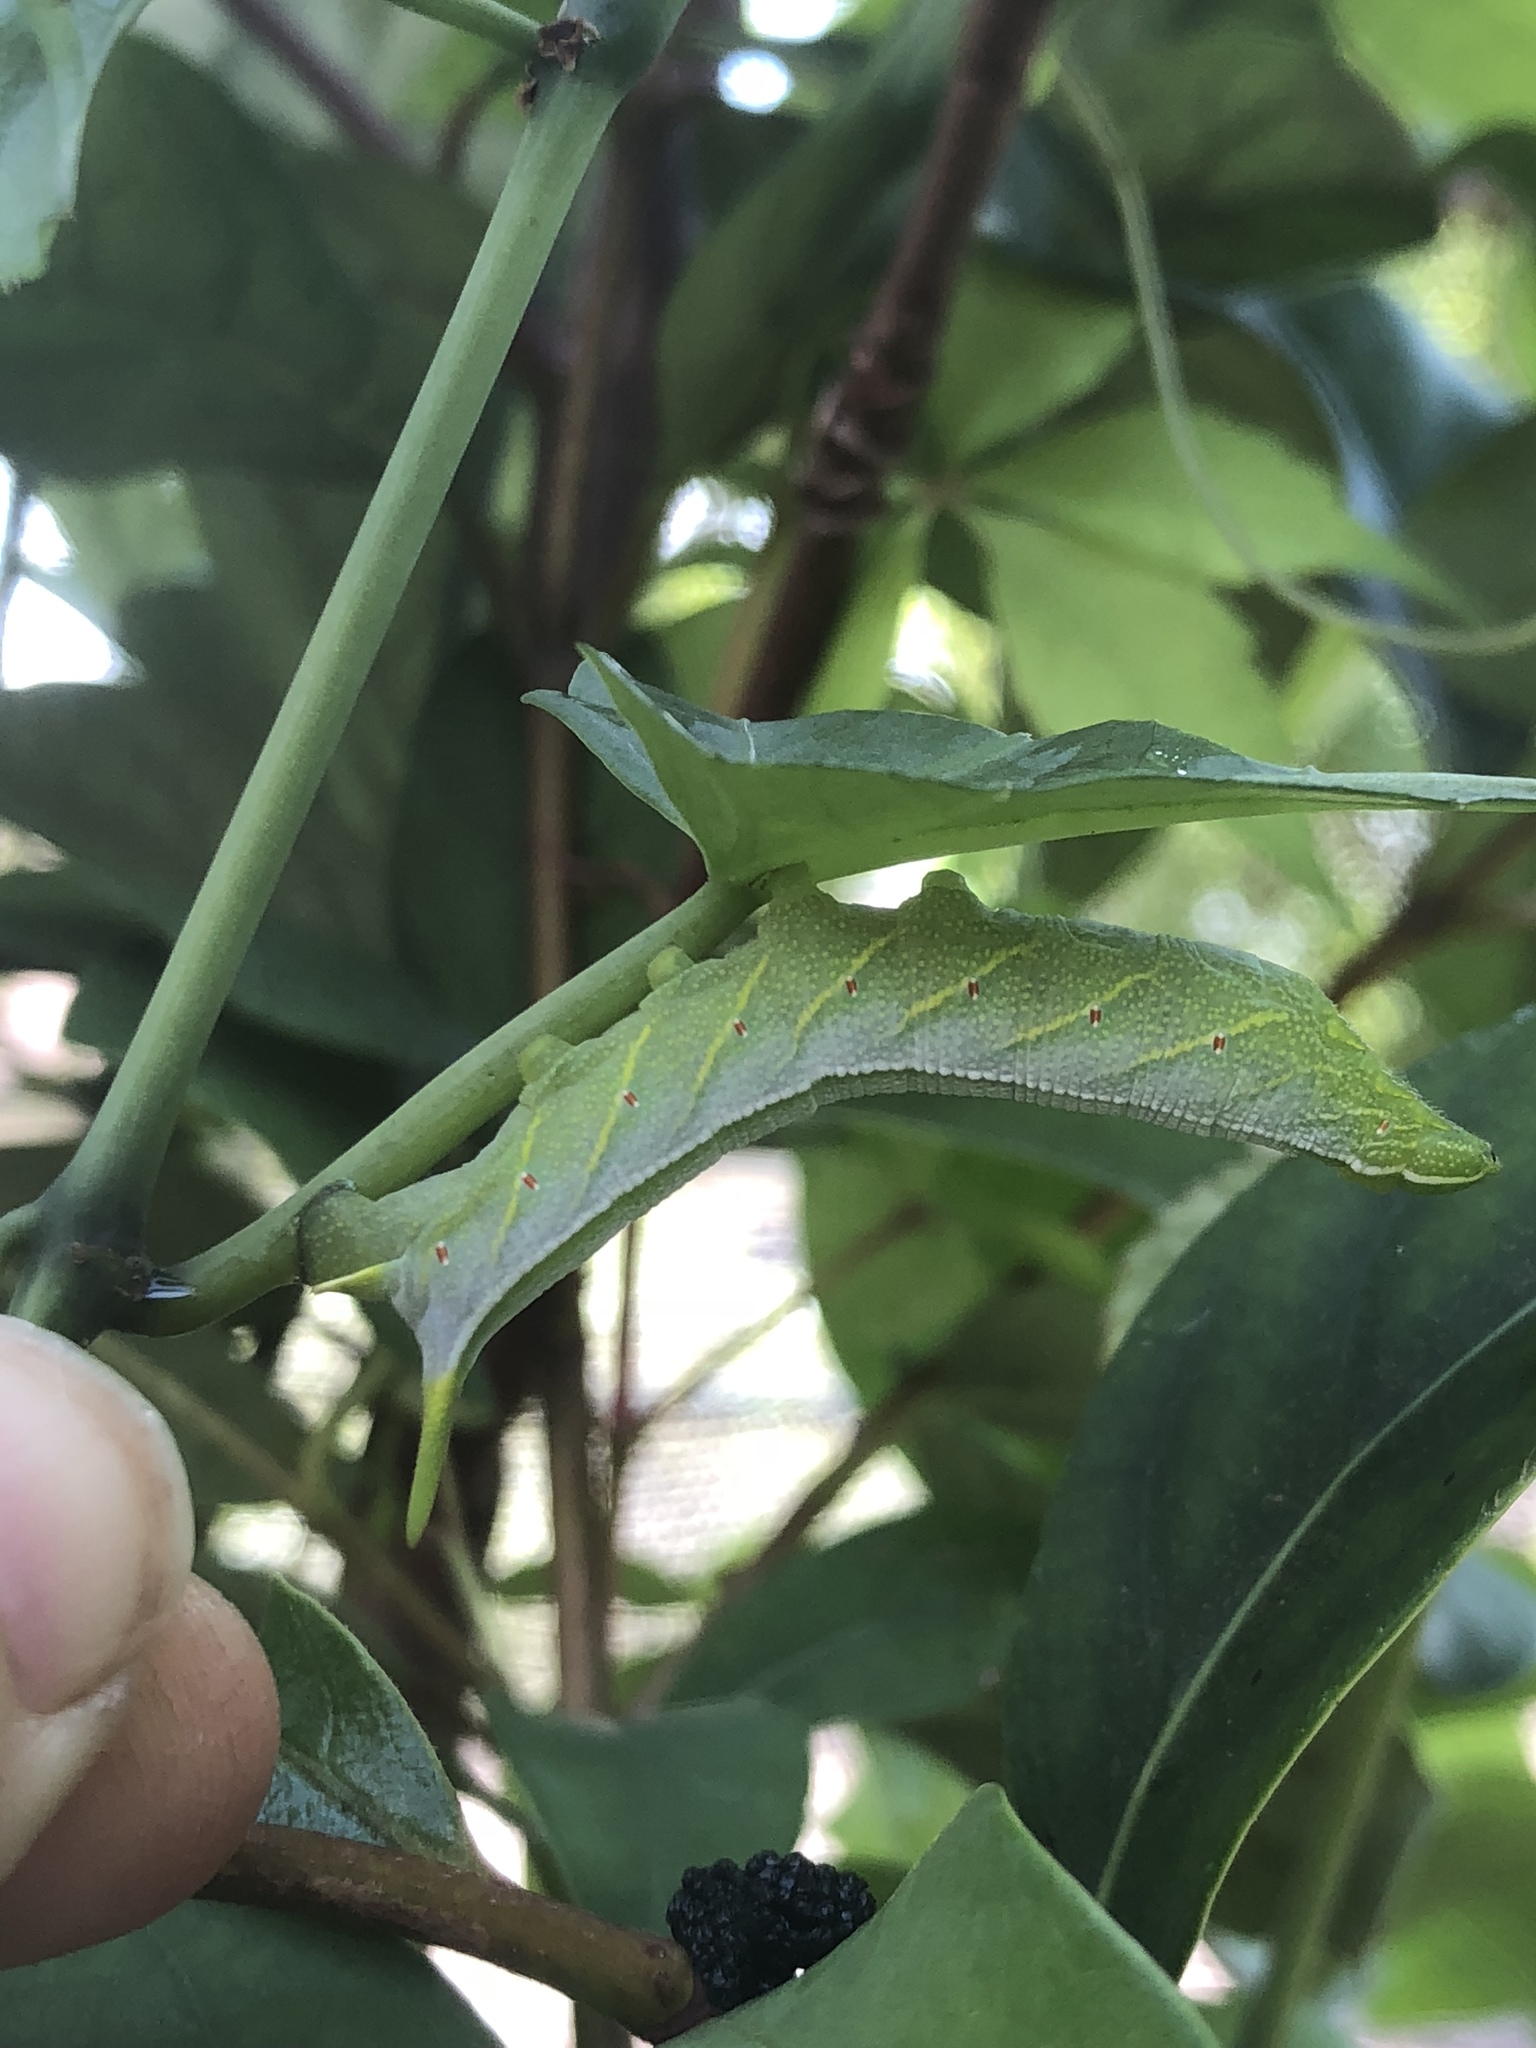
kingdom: Animalia
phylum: Arthropoda
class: Insecta
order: Lepidoptera
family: Sphingidae
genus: Enyo
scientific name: Enyo lugubris
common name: Mournful sphinx
